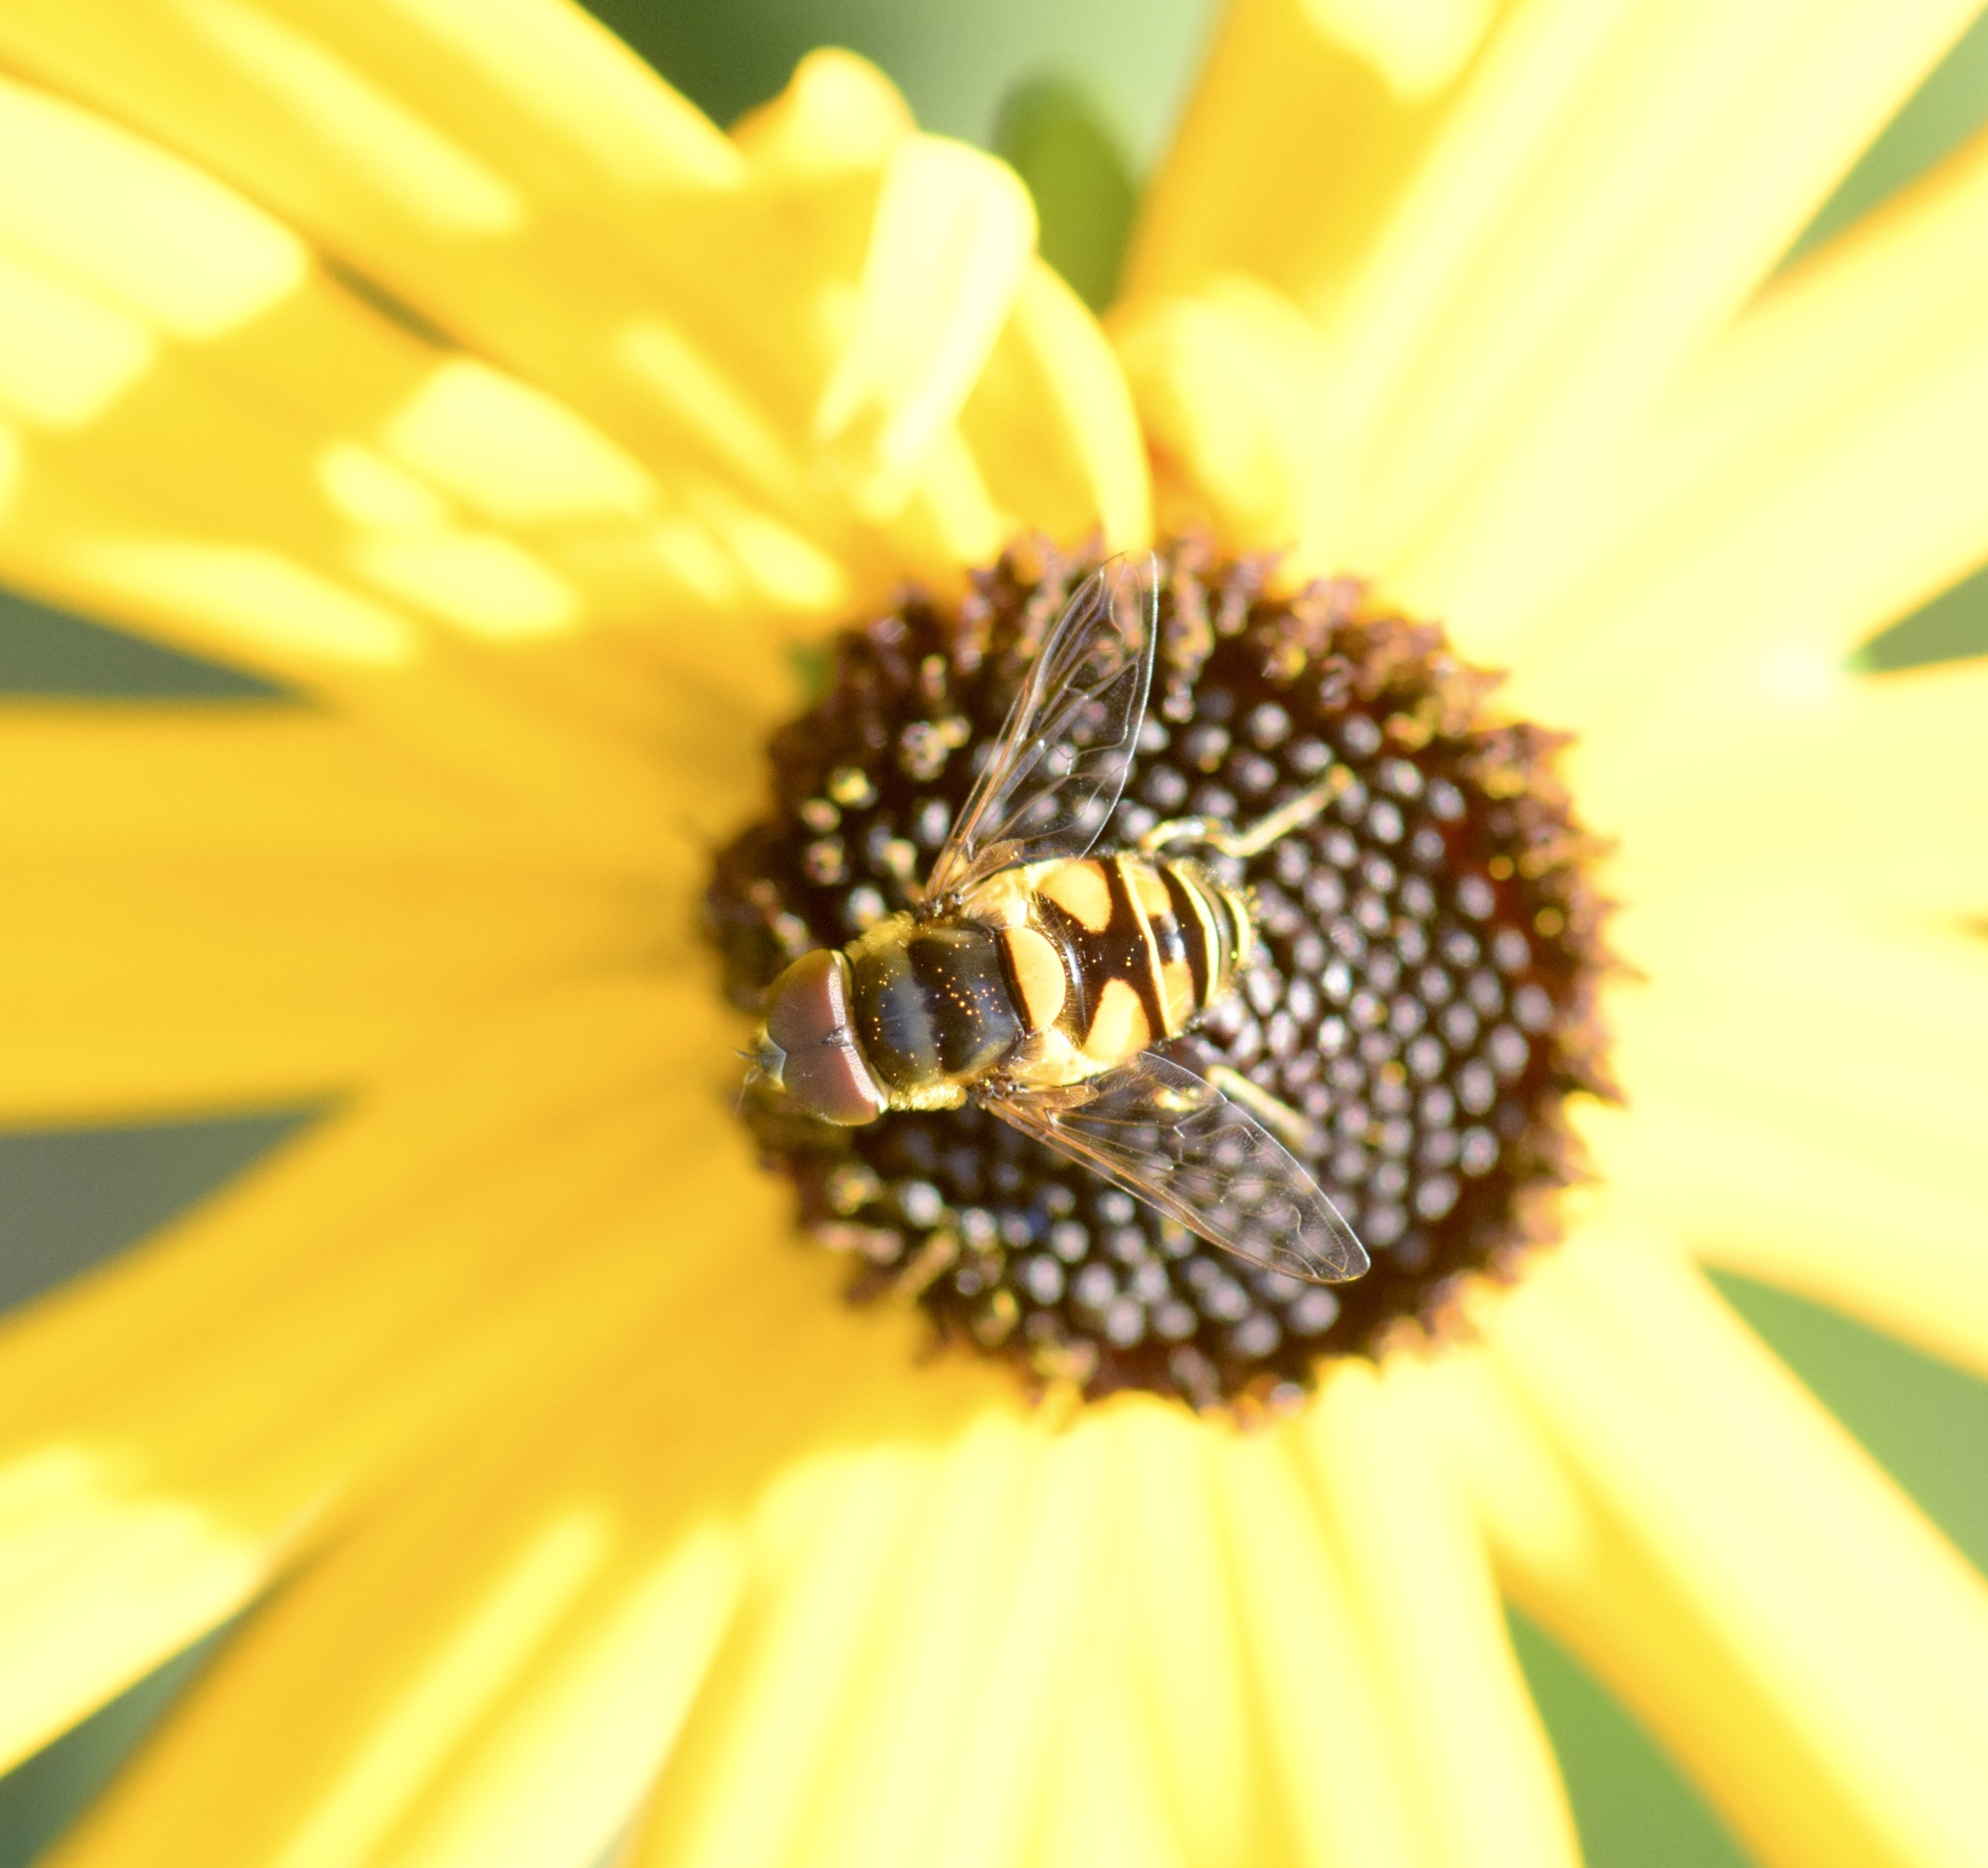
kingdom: Animalia
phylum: Arthropoda
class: Insecta
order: Diptera
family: Syrphidae
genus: Eristalis
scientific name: Eristalis transversa
